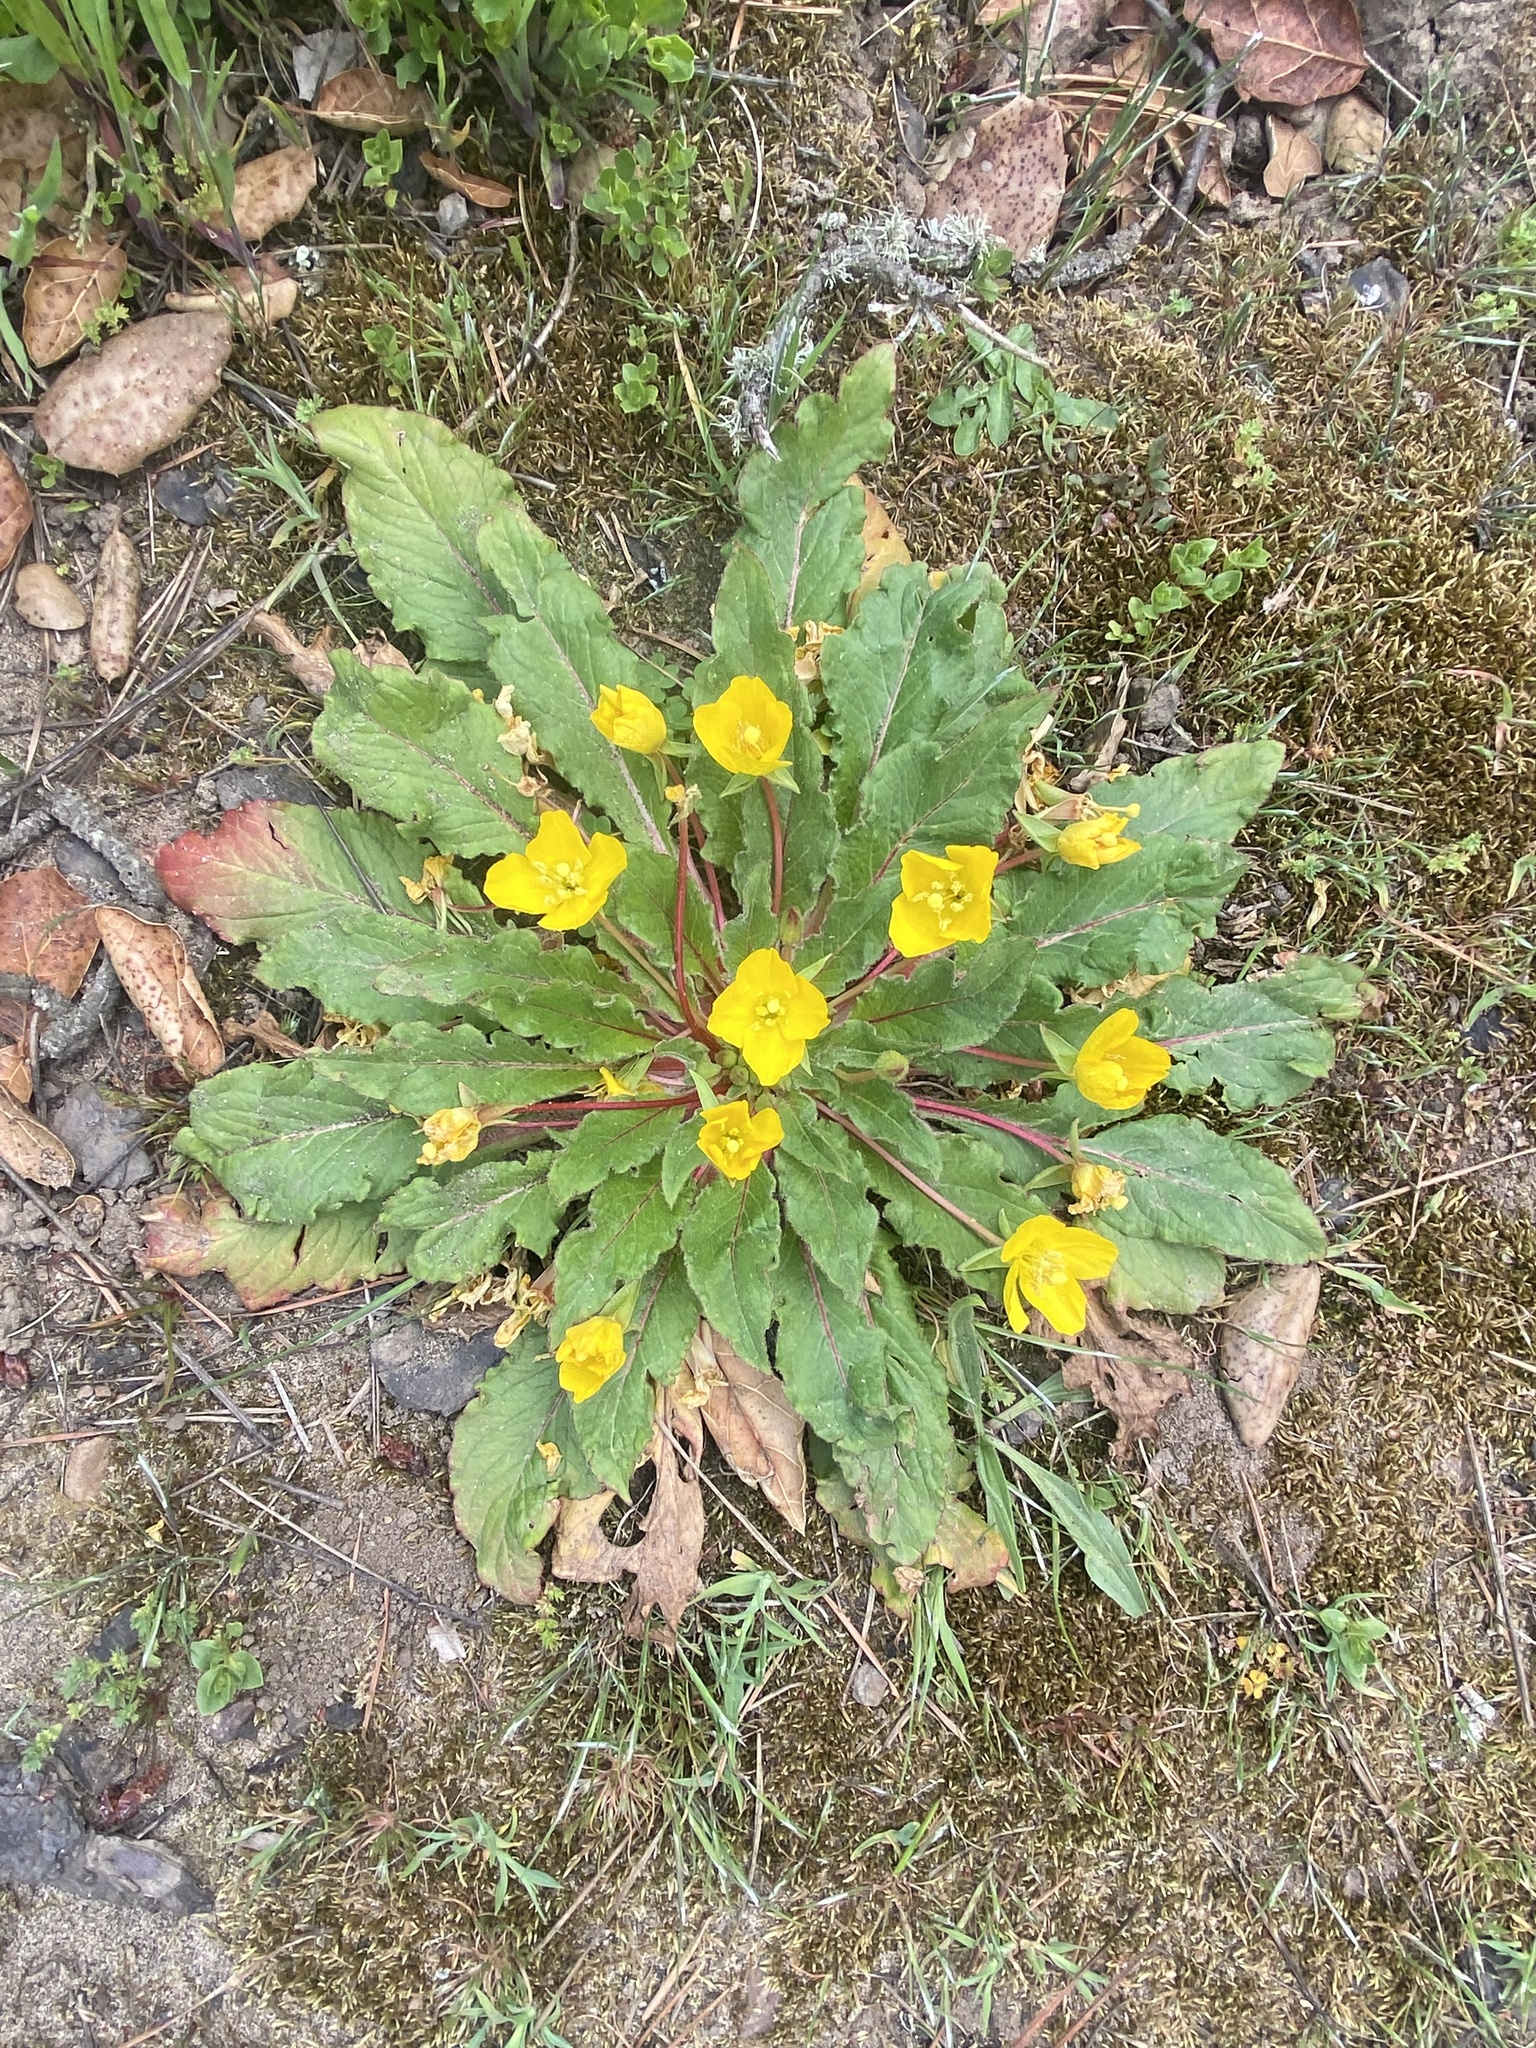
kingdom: Plantae
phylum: Tracheophyta
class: Magnoliopsida
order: Myrtales
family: Onagraceae
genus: Taraxia
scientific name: Taraxia ovata
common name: Goldeneggs
